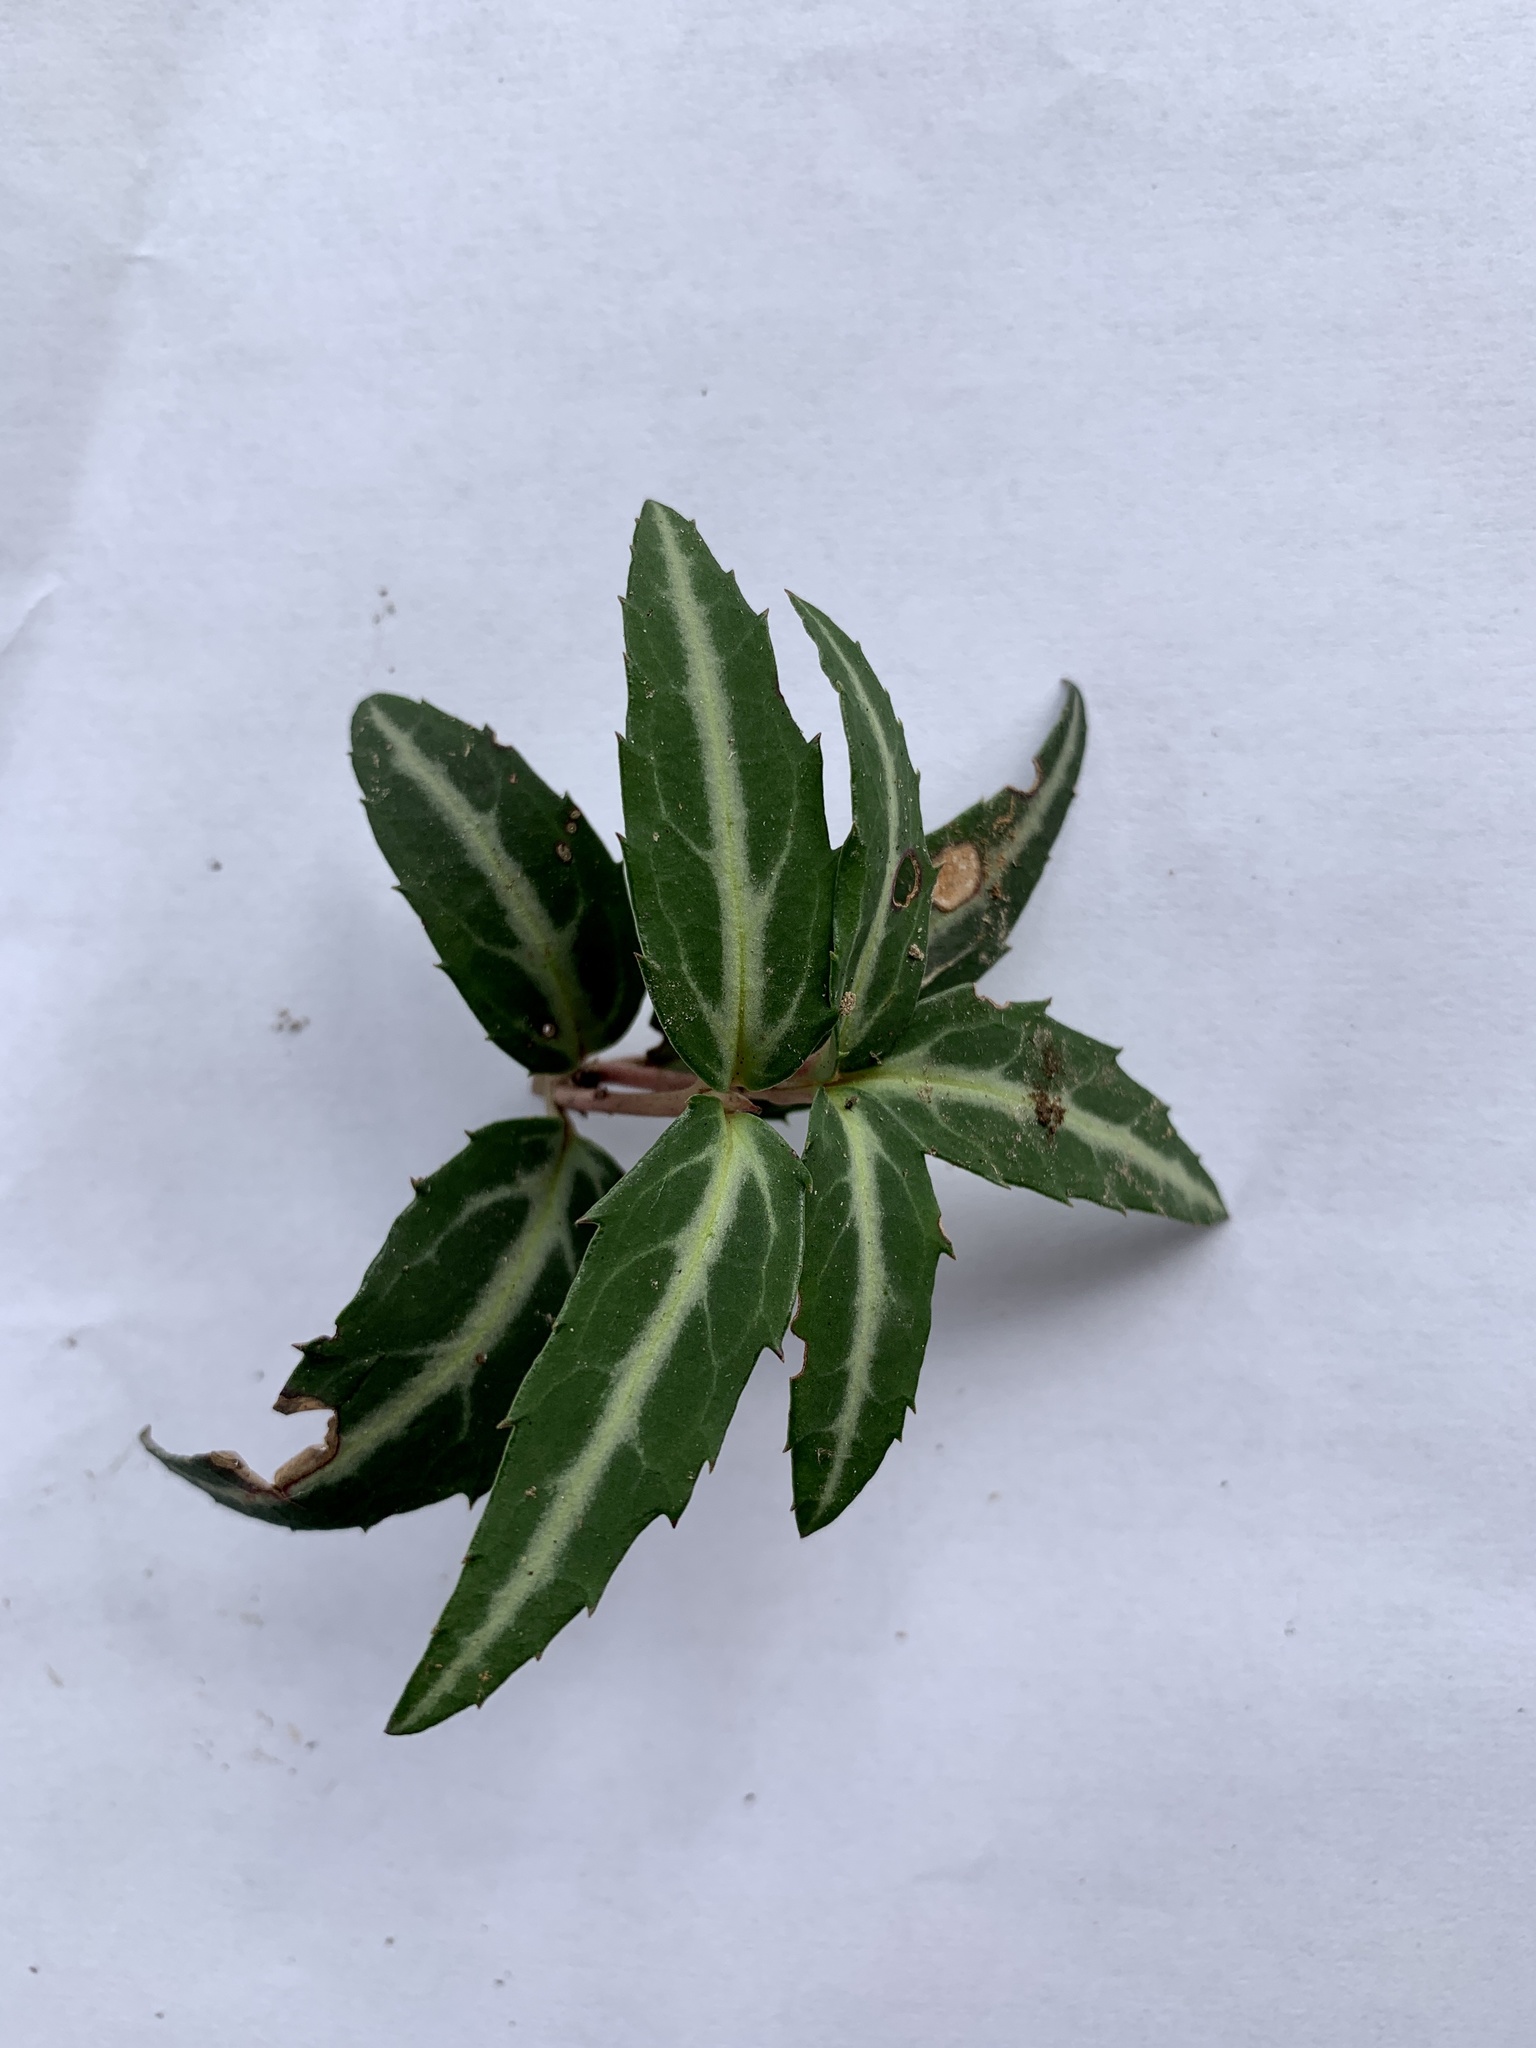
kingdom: Plantae
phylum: Tracheophyta
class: Magnoliopsida
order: Ericales
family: Ericaceae
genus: Chimaphila
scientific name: Chimaphila maculata
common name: Spotted pipsissewa
